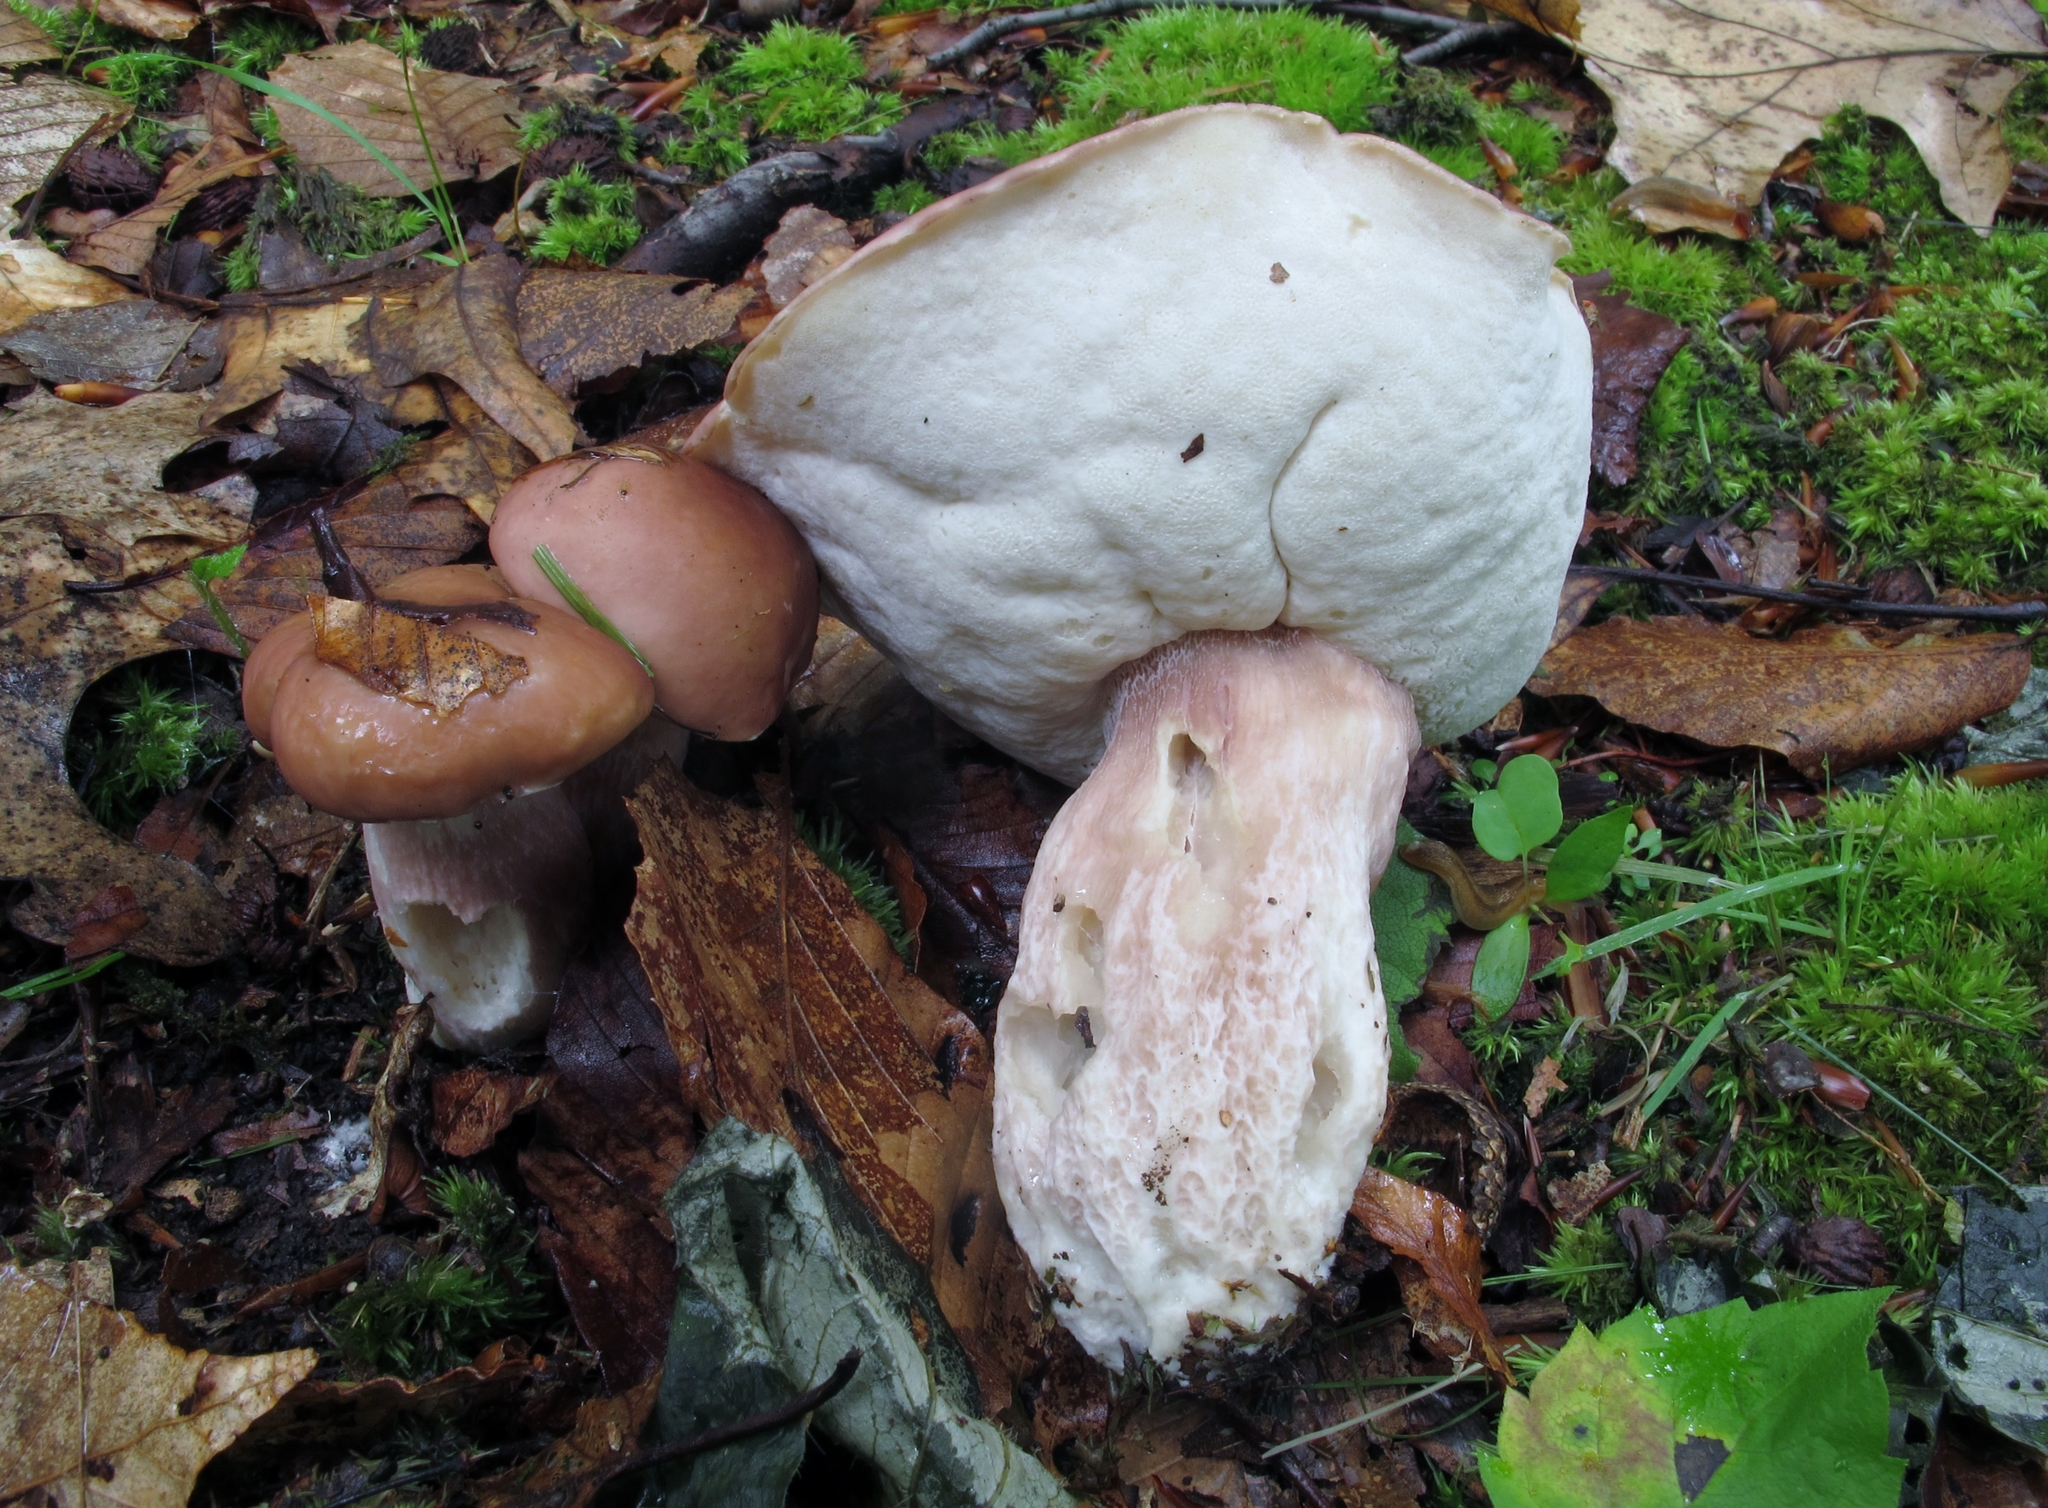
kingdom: Fungi
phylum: Basidiomycota
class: Agaricomycetes
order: Boletales
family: Boletaceae
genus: Xanthoconium
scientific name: Xanthoconium separans
